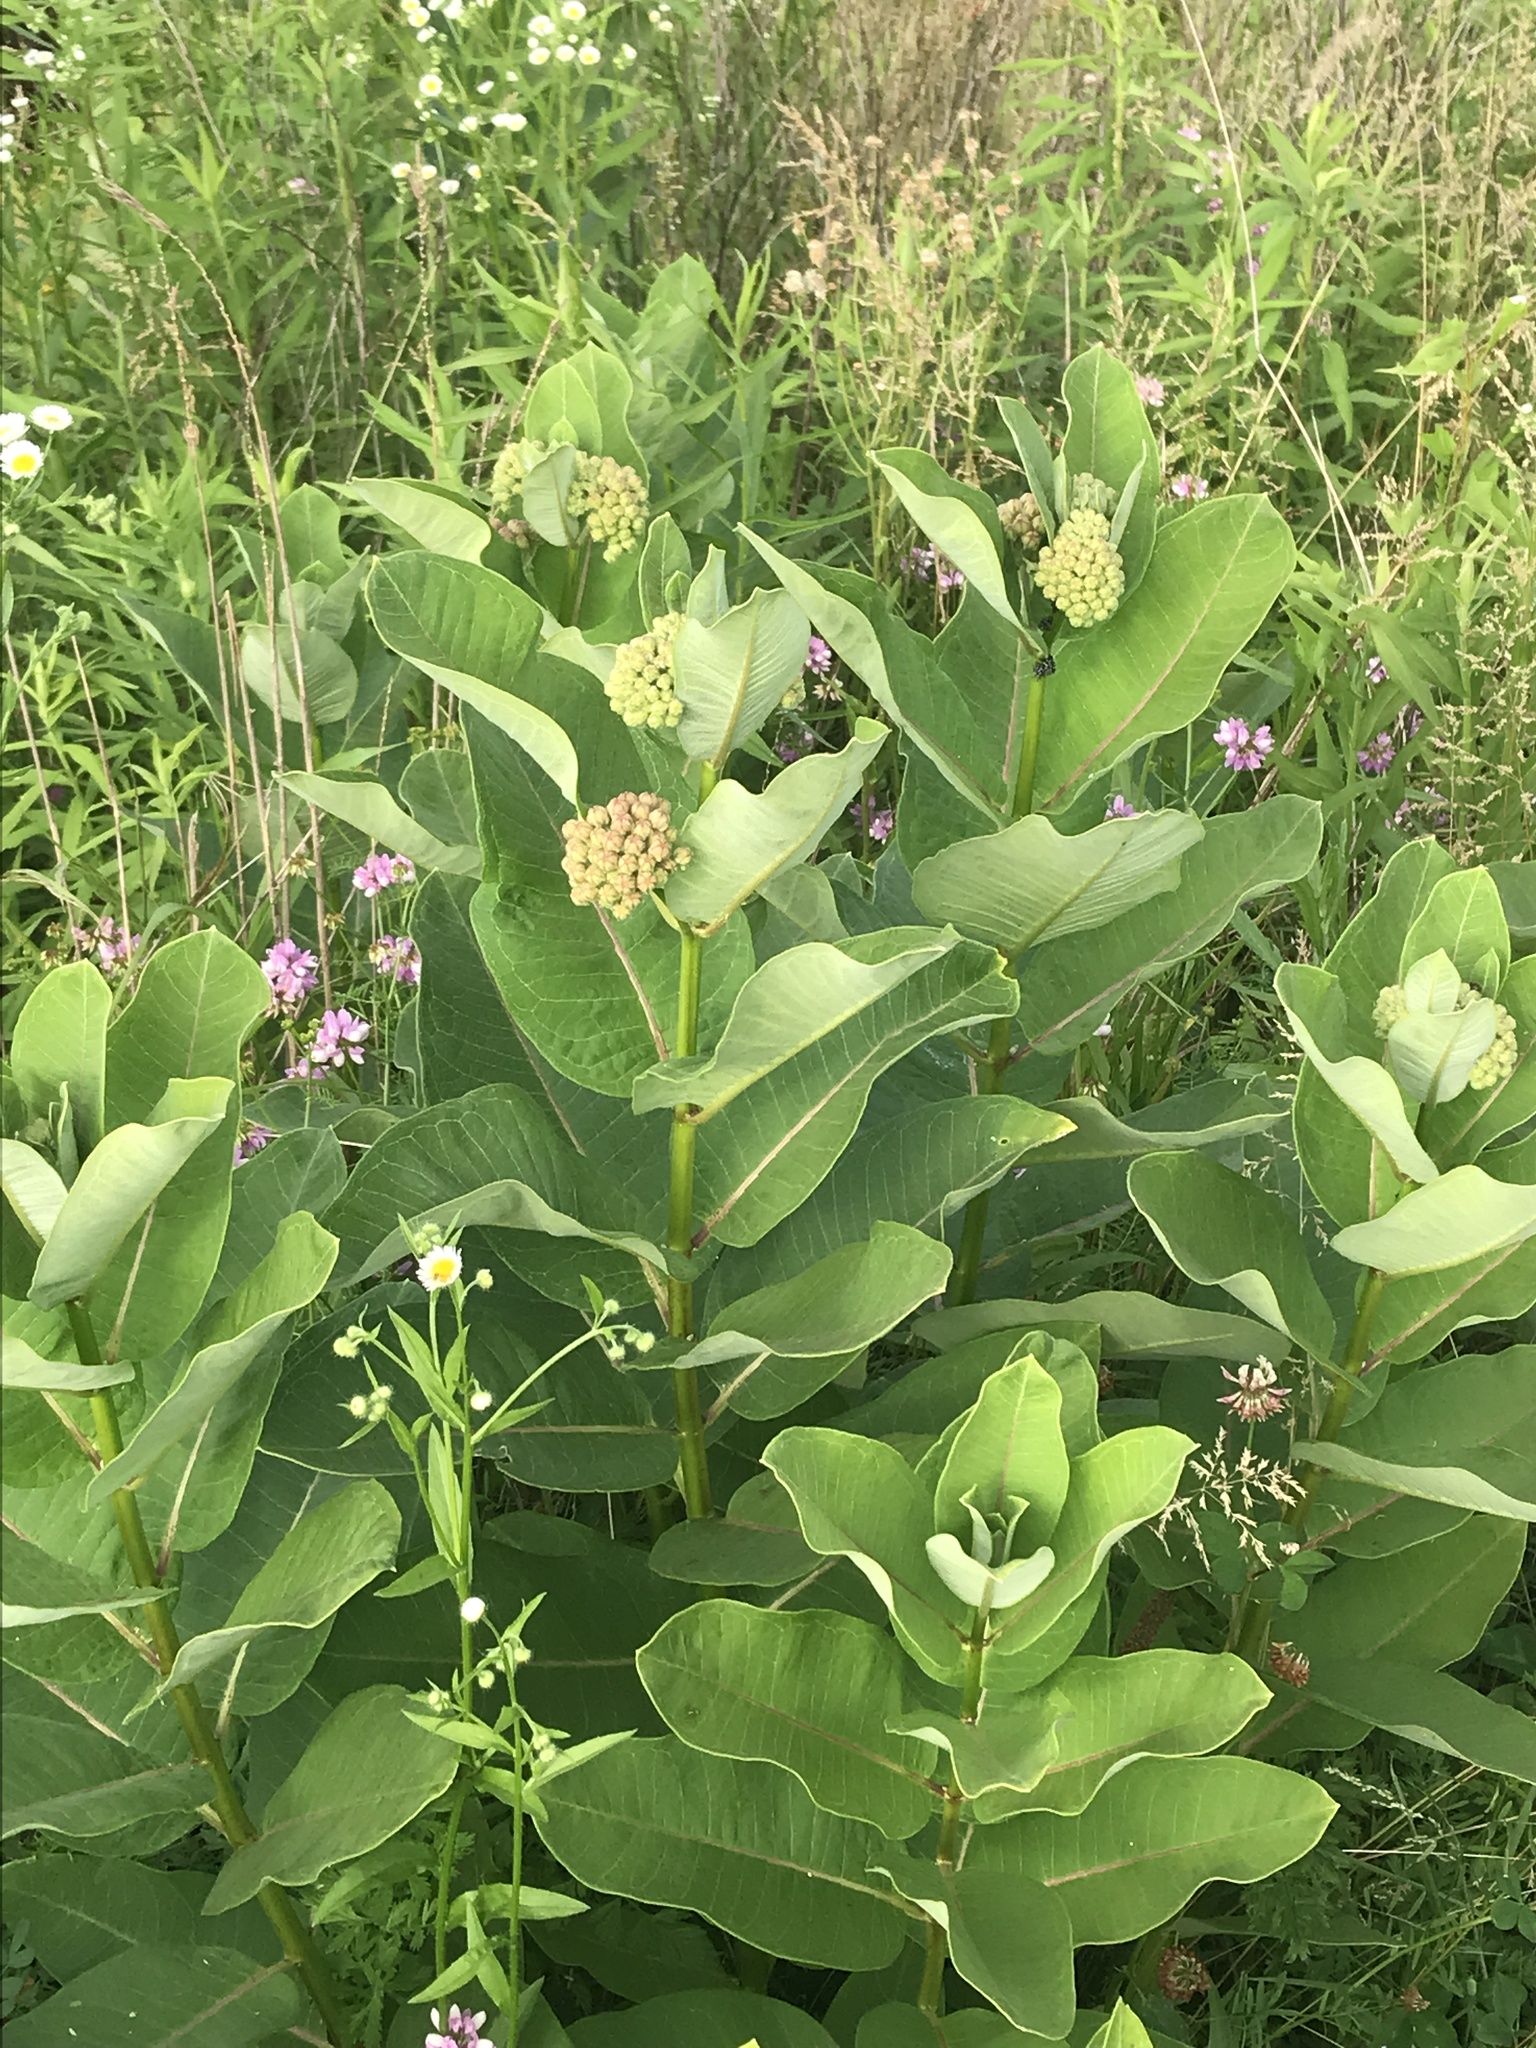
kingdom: Plantae
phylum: Tracheophyta
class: Magnoliopsida
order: Gentianales
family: Apocynaceae
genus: Asclepias
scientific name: Asclepias syriaca
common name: Common milkweed
